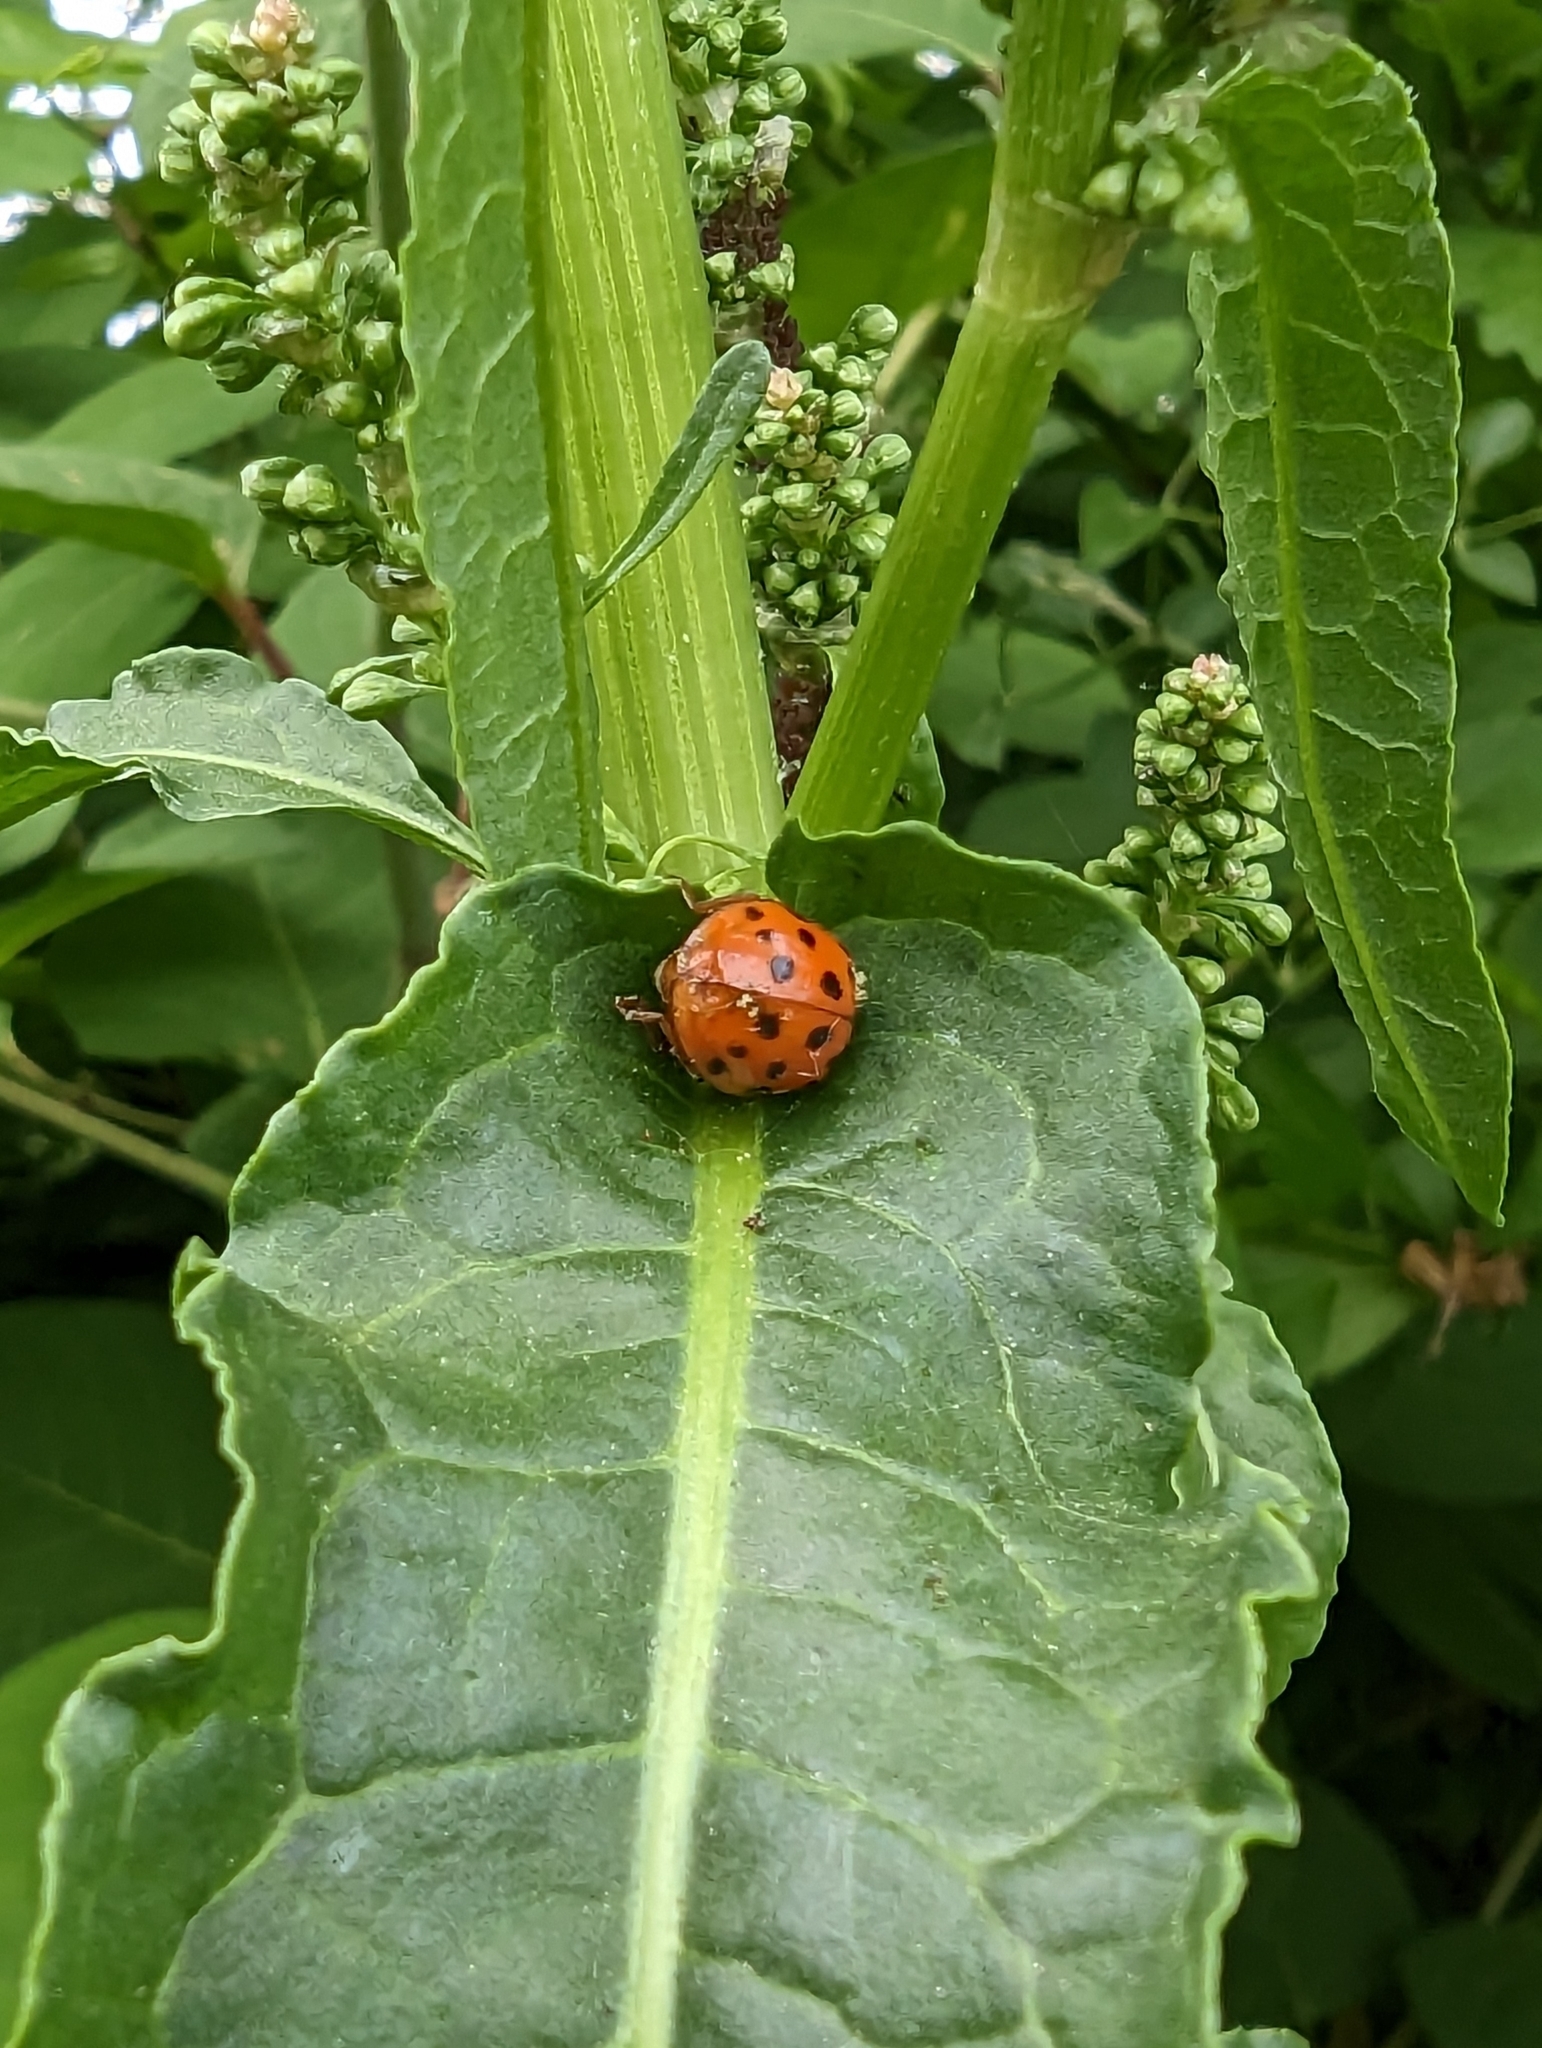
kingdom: Animalia
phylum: Arthropoda
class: Insecta
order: Coleoptera
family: Coccinellidae
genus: Harmonia
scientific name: Harmonia axyridis
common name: Harlequin ladybird
